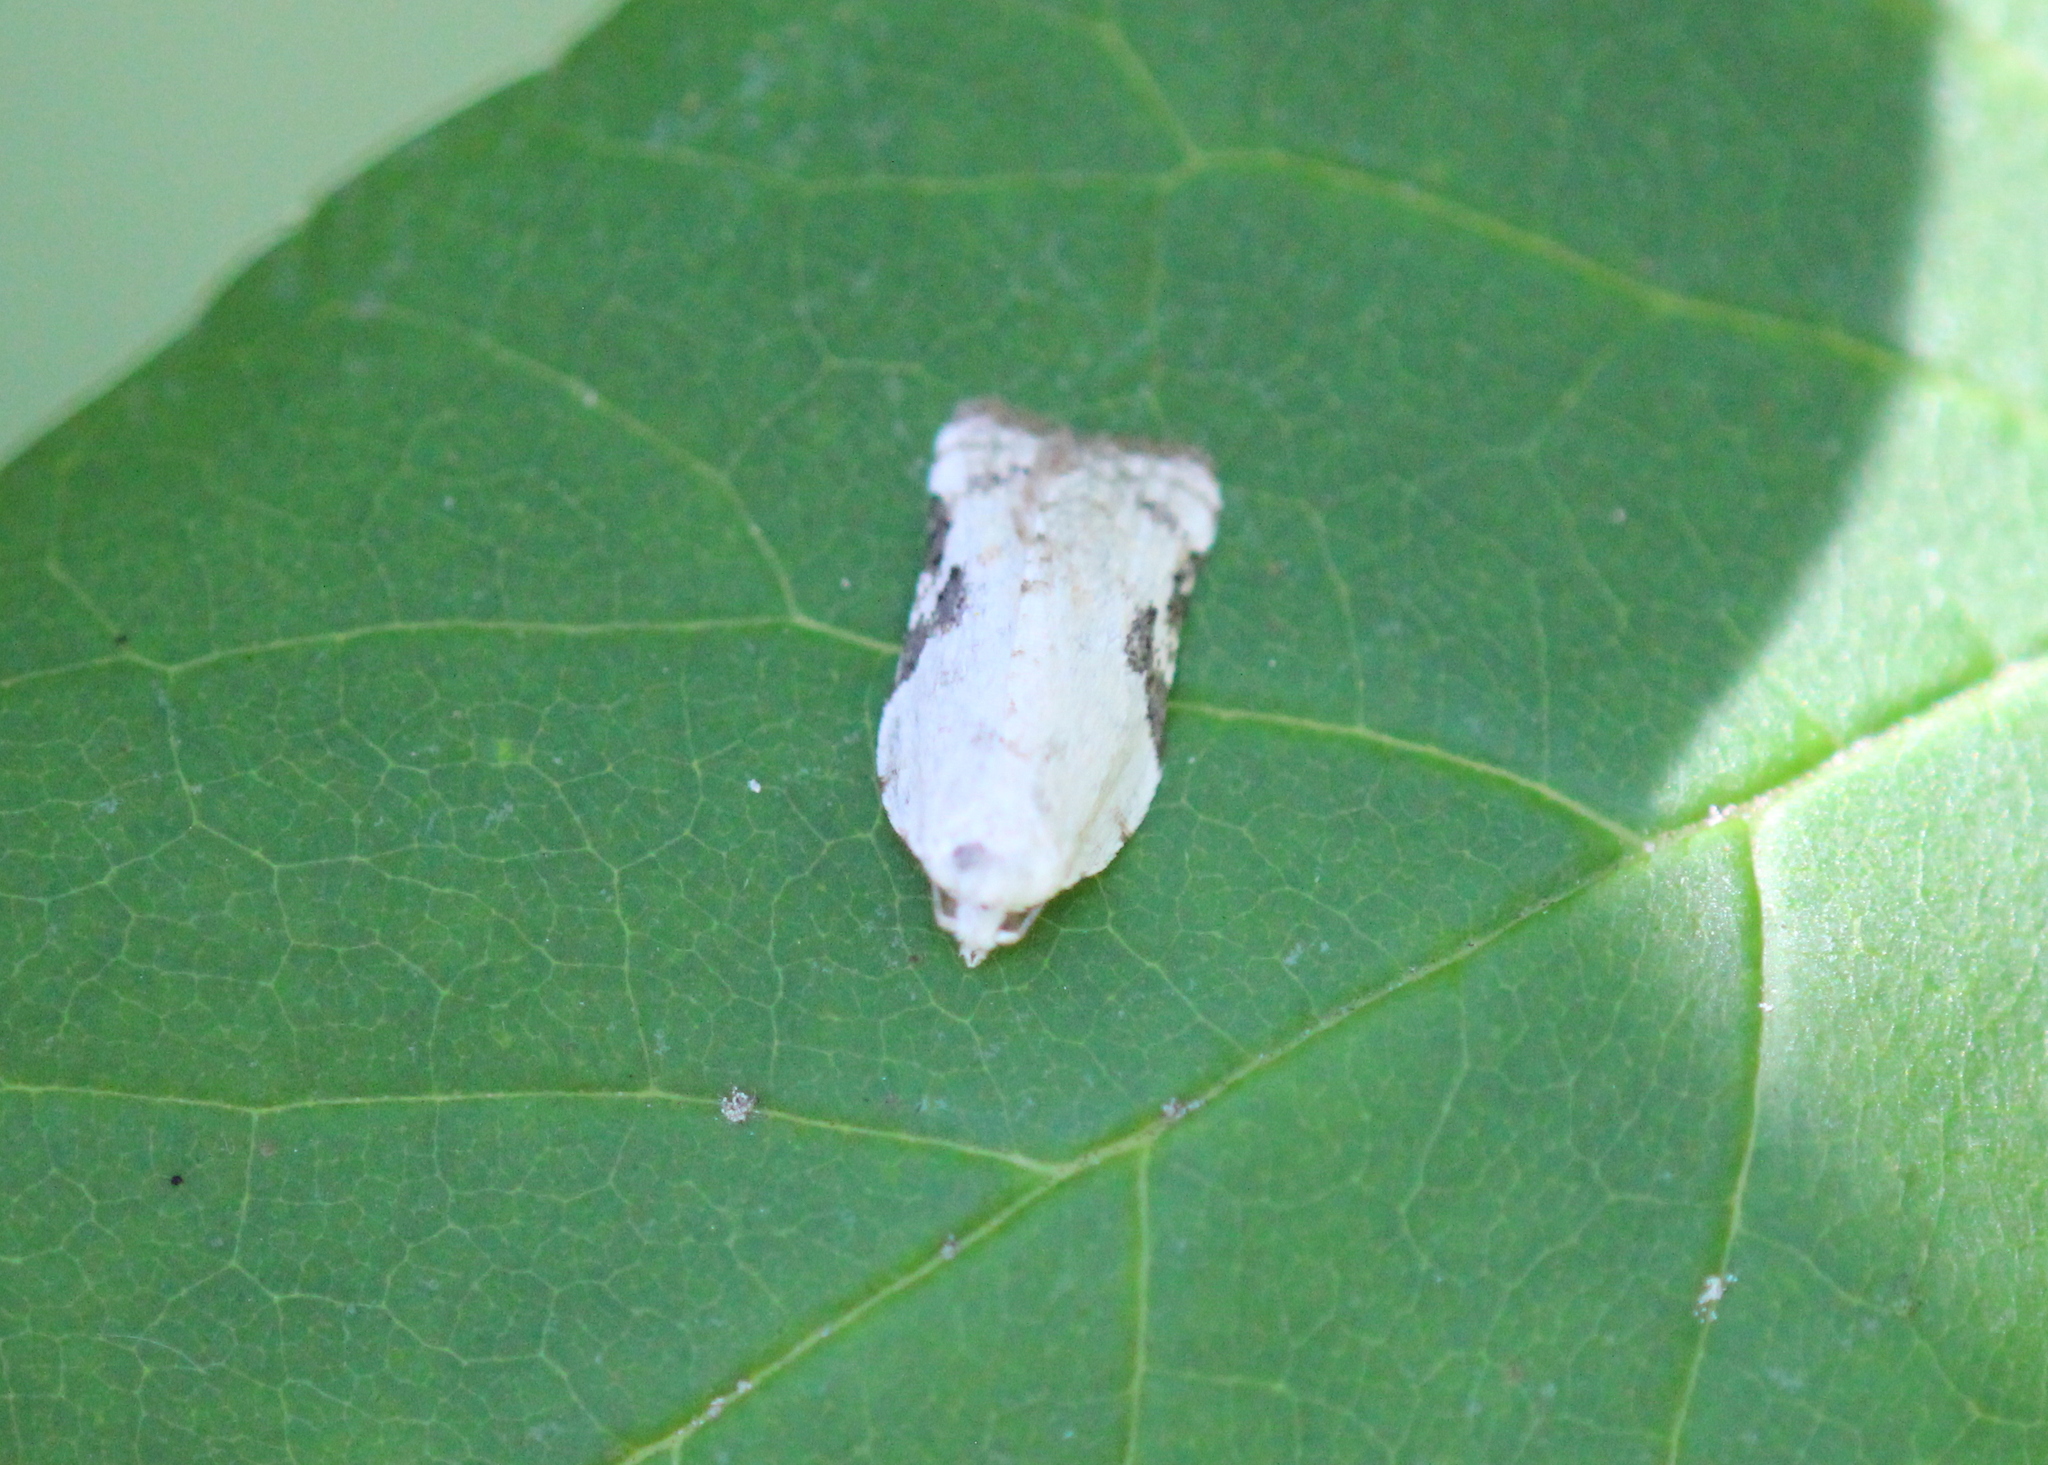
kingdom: Animalia
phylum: Arthropoda
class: Insecta
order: Lepidoptera
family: Tortricidae
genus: Acleris
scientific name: Acleris subnivana
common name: Bent-winged acleris moth
